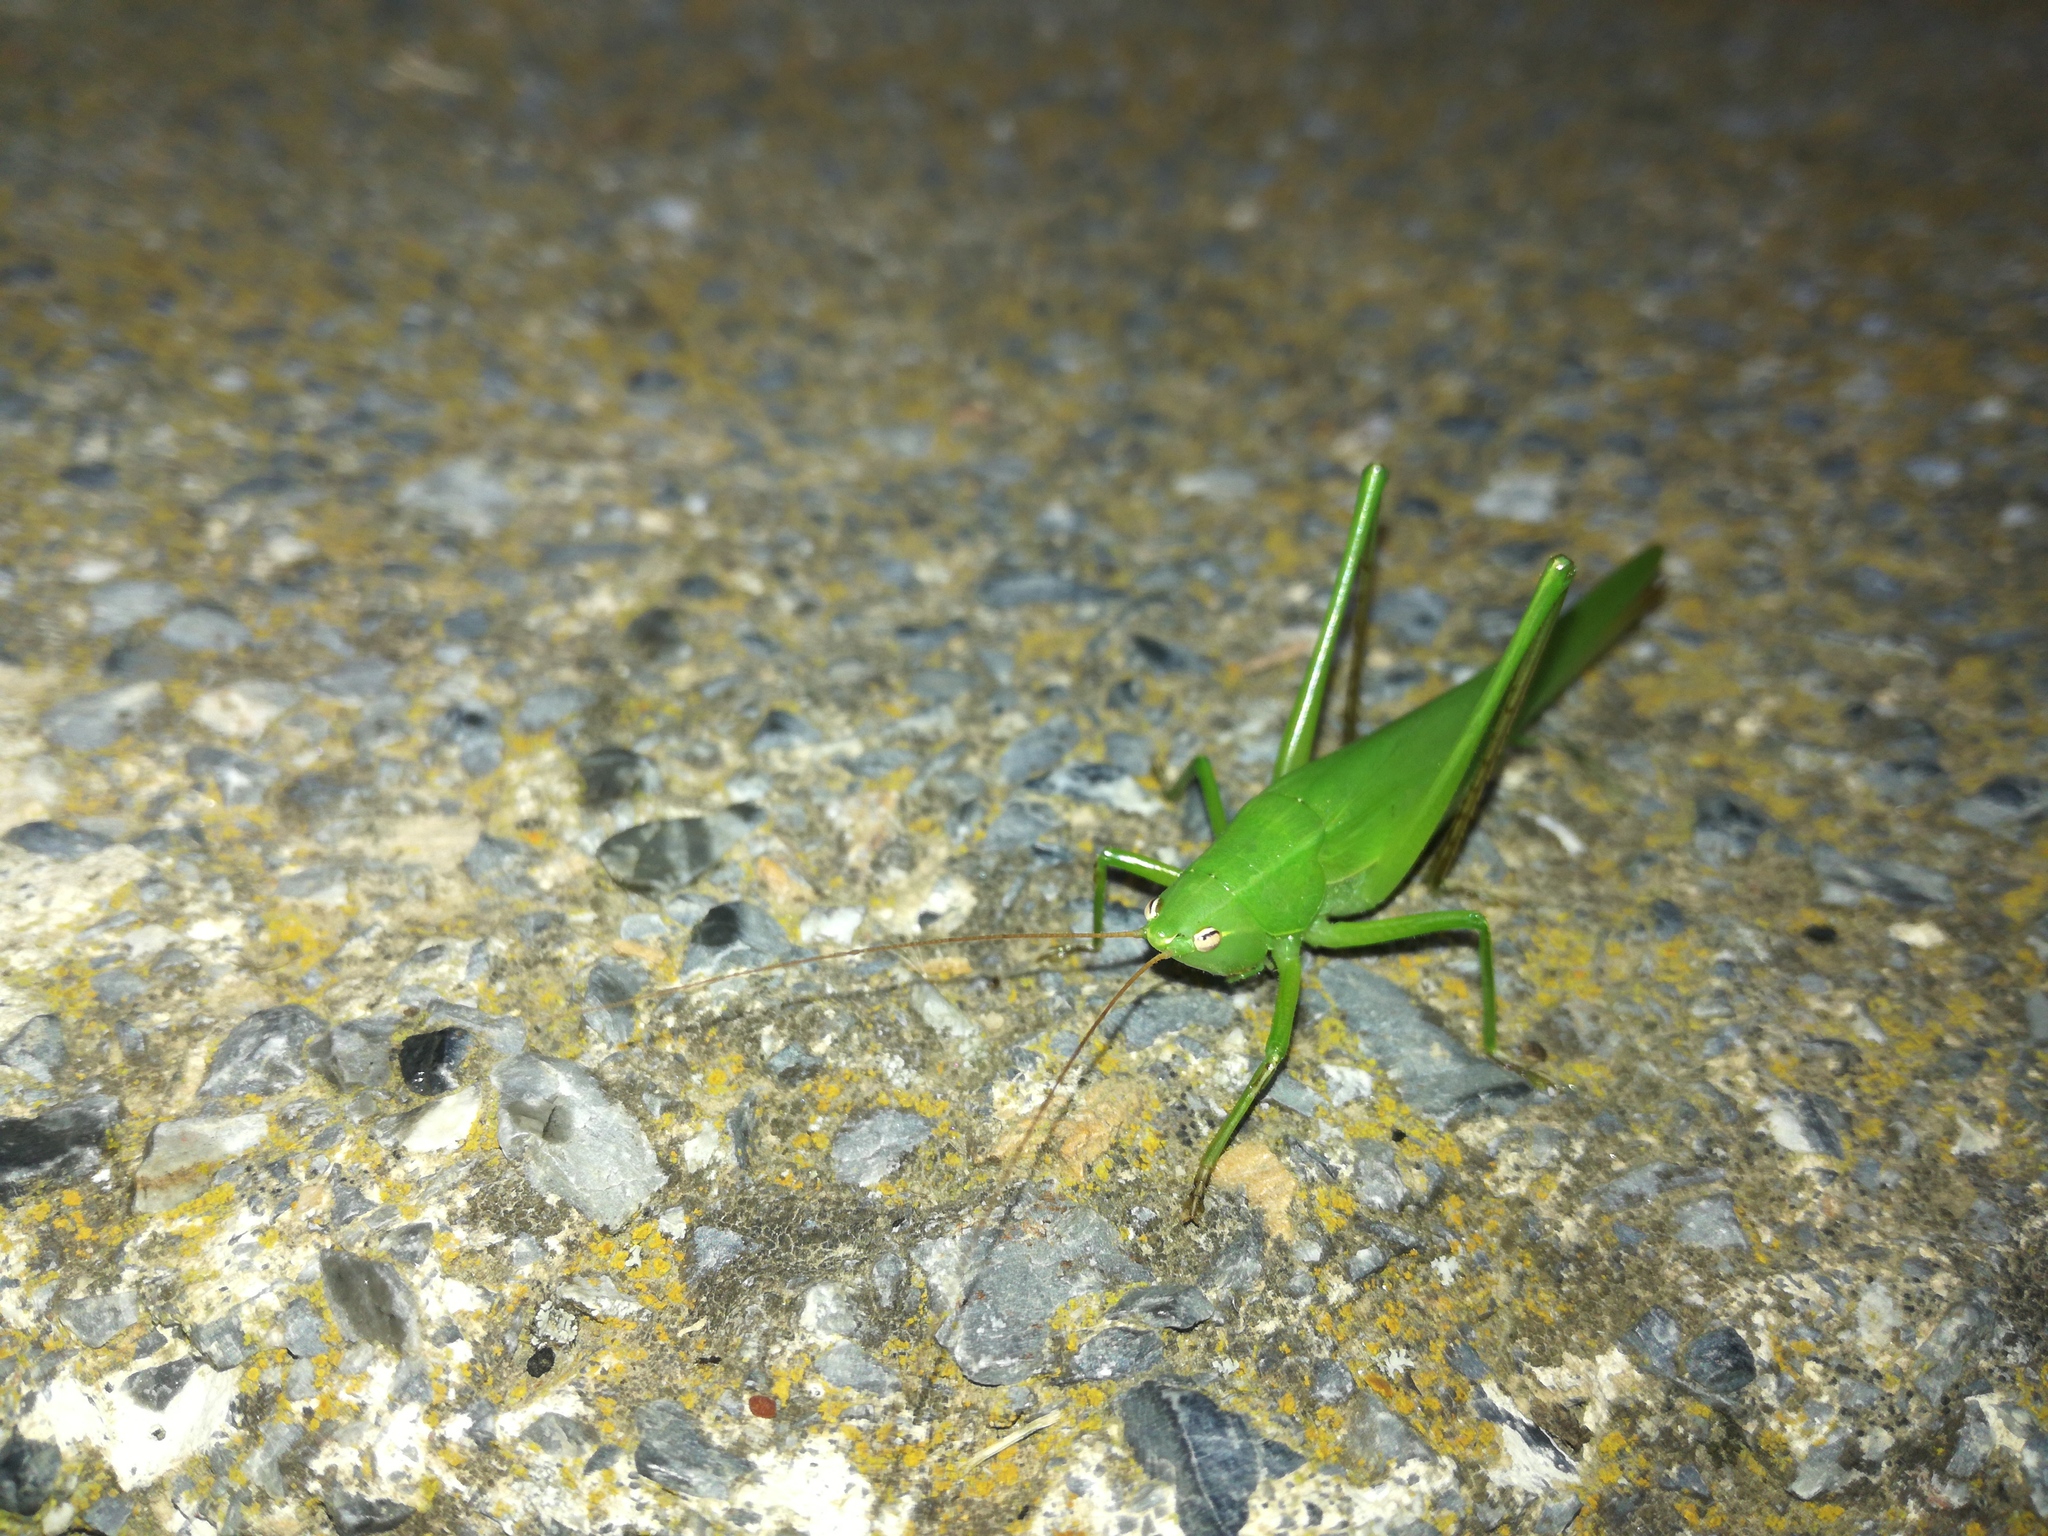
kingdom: Animalia
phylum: Arthropoda
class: Insecta
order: Orthoptera
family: Tettigoniidae
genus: Ruspolia
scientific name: Ruspolia nitidula
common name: Large conehead
